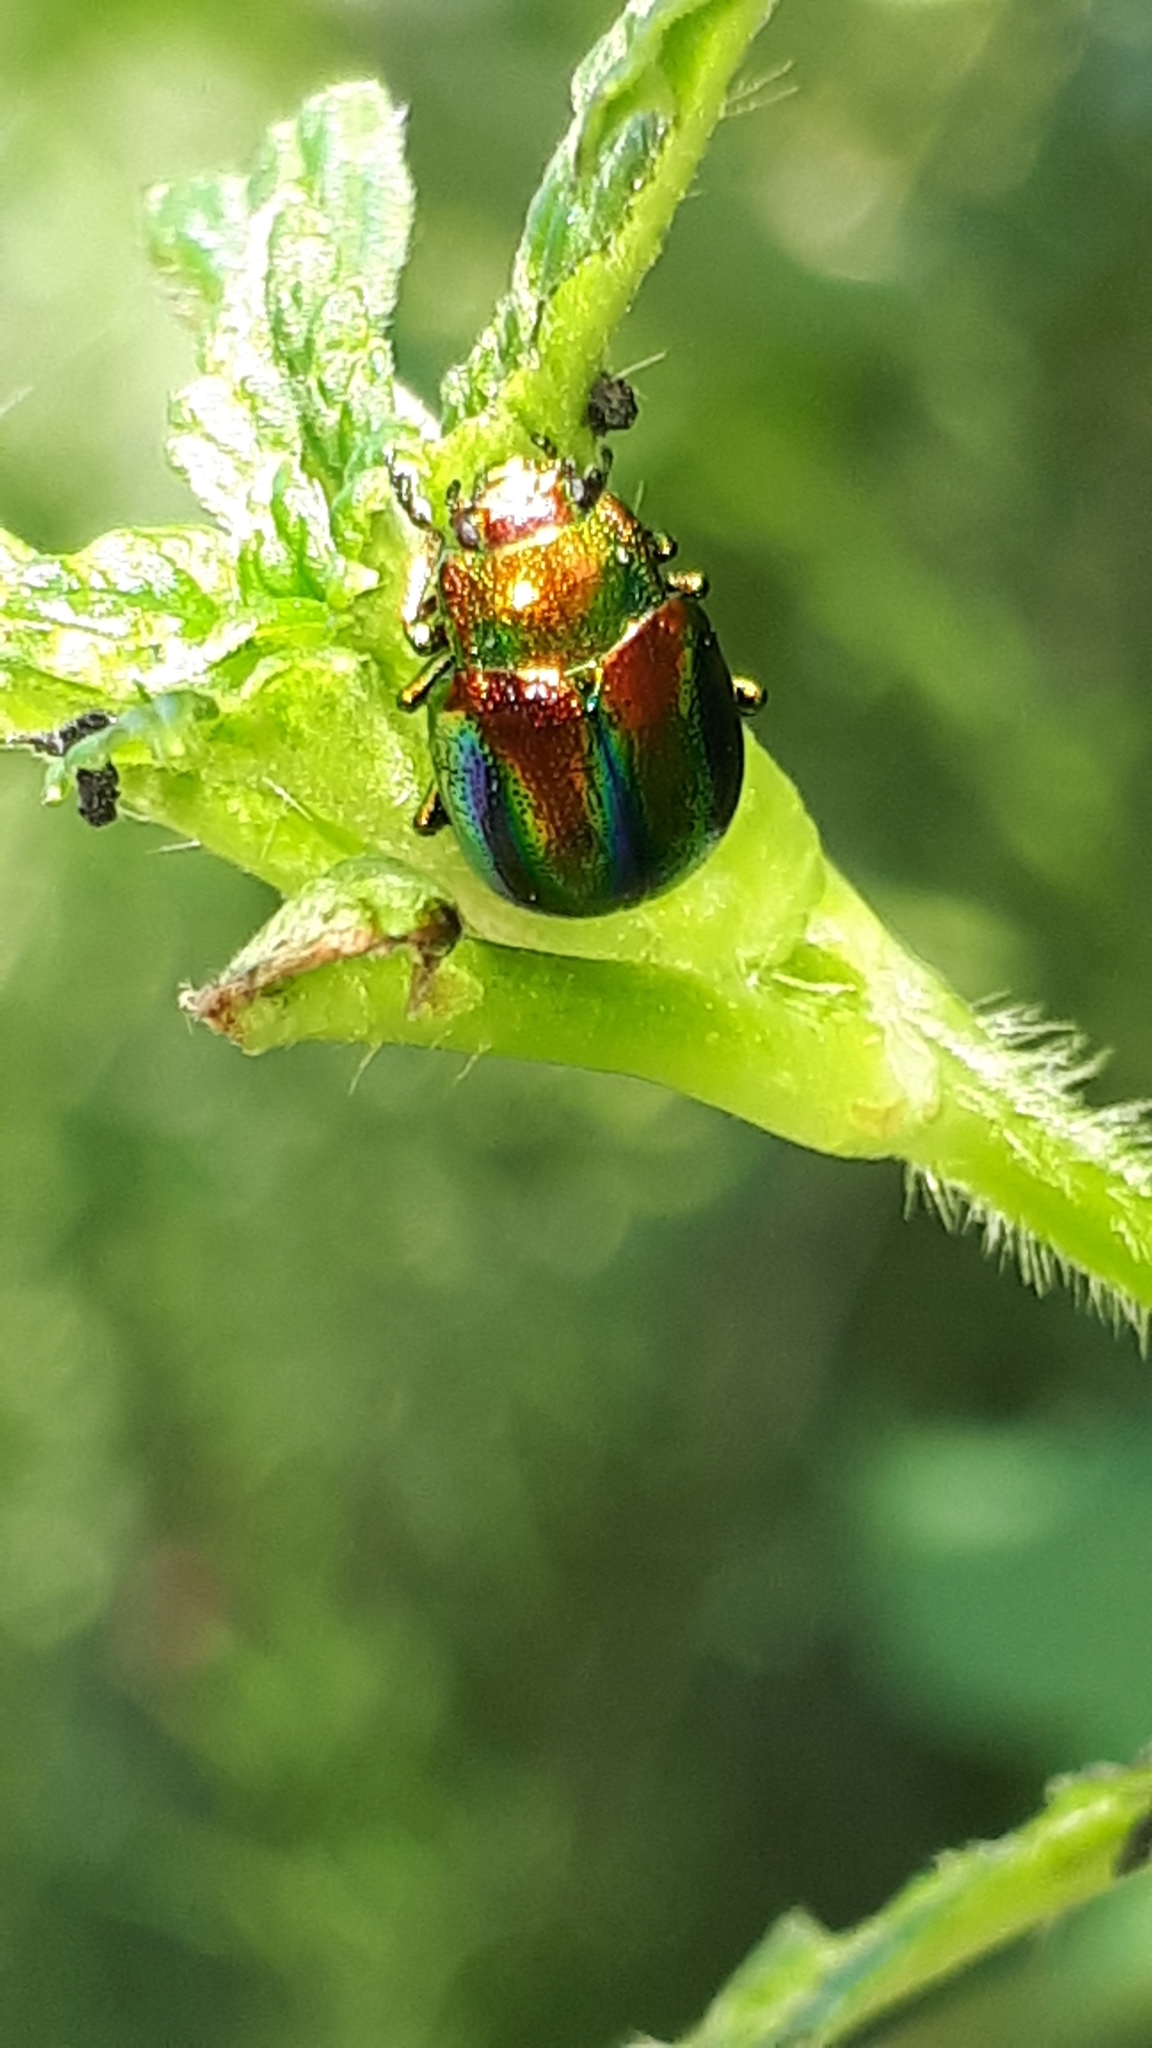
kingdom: Animalia
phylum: Arthropoda
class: Insecta
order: Coleoptera
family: Chrysomelidae
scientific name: Chrysomelidae
